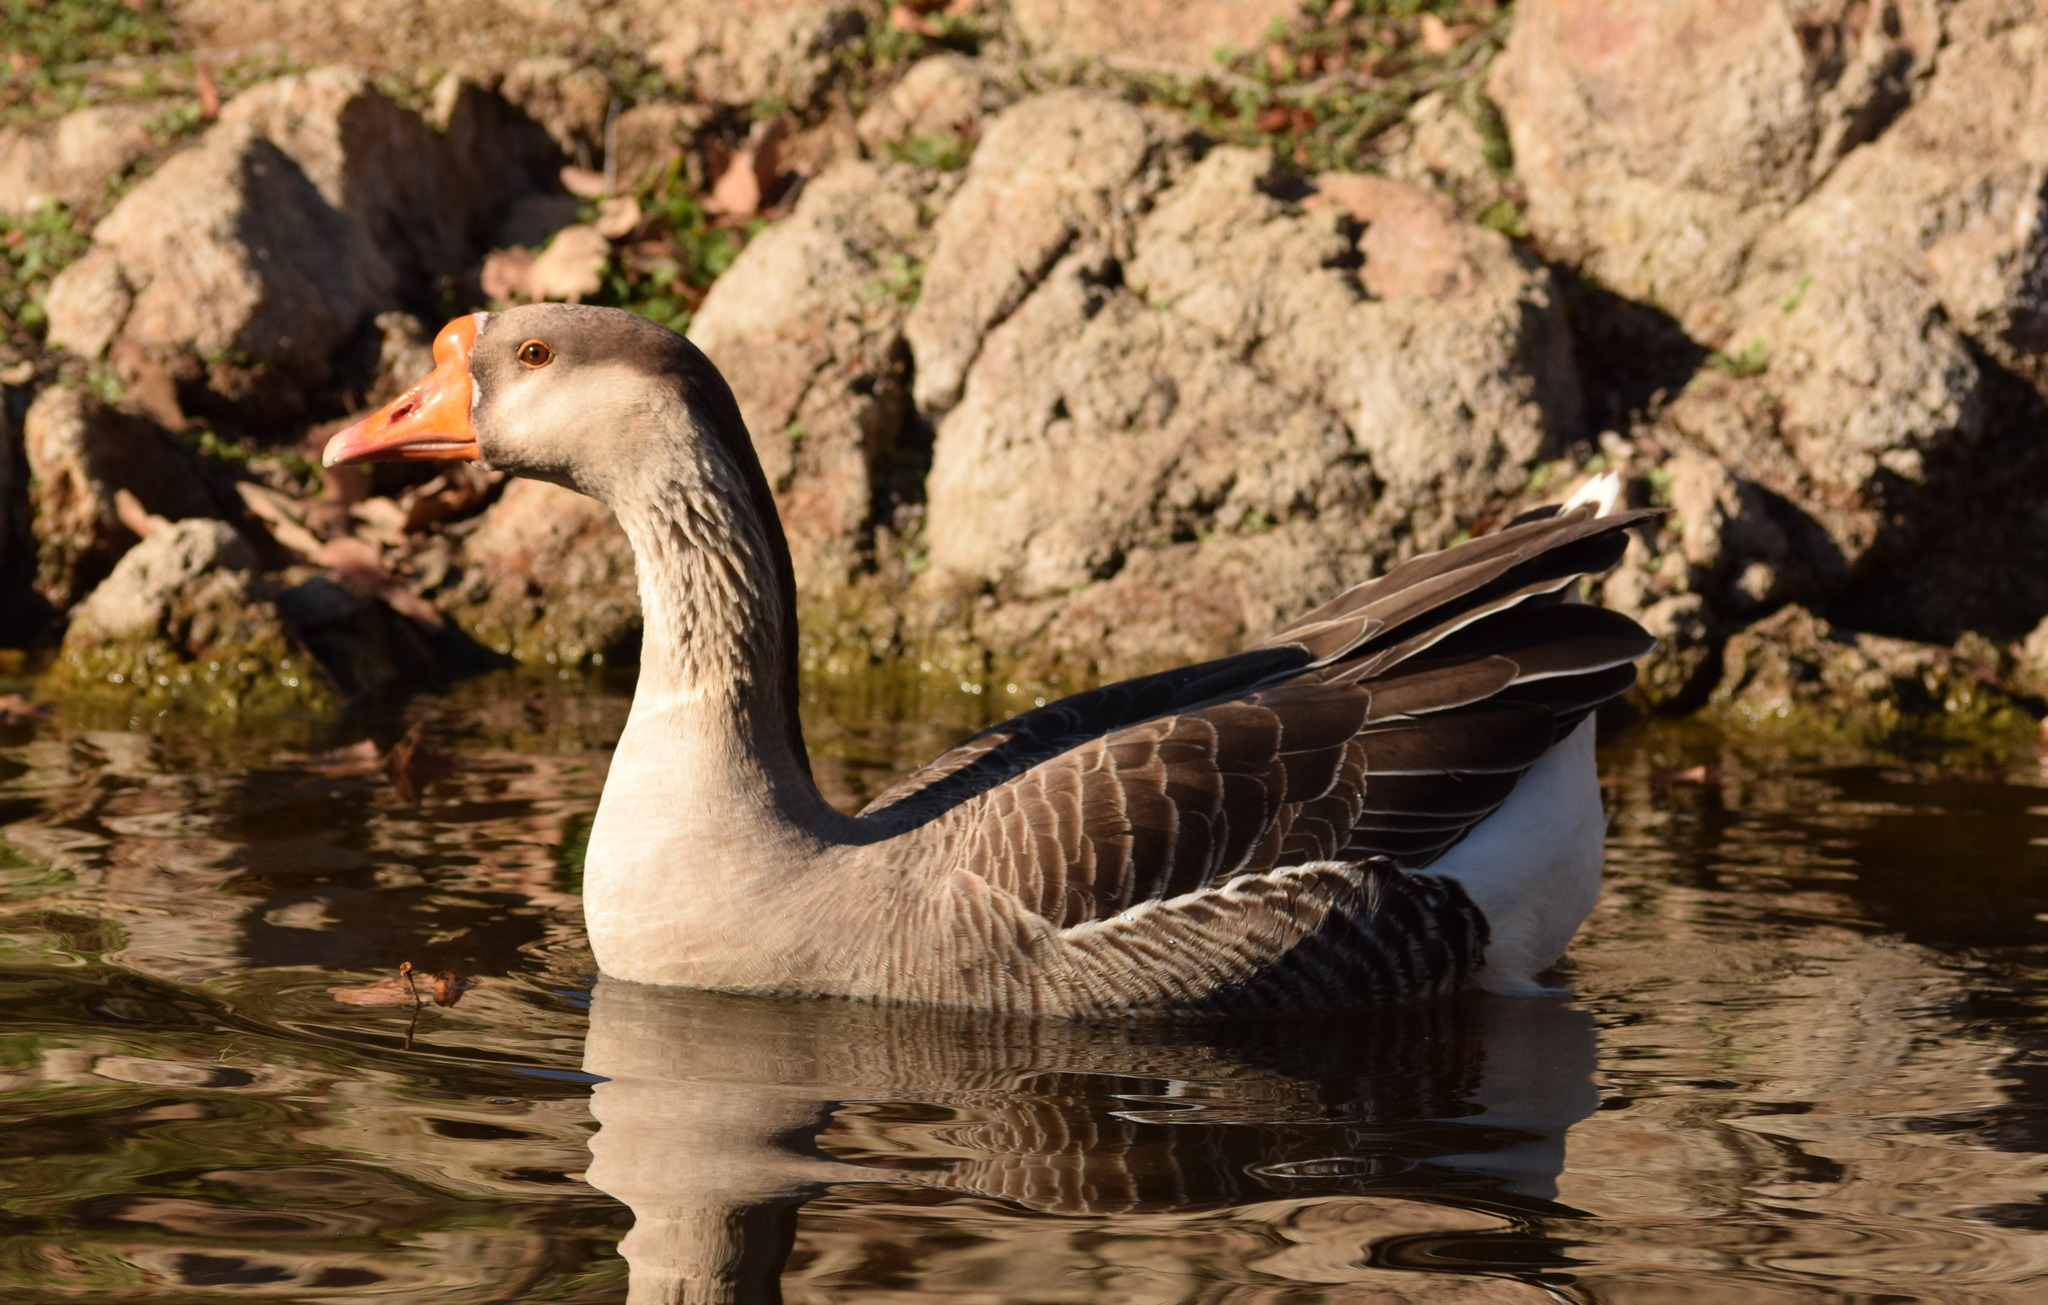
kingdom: Animalia
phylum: Chordata
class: Aves
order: Anseriformes
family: Anatidae
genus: Anser
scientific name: Anser
